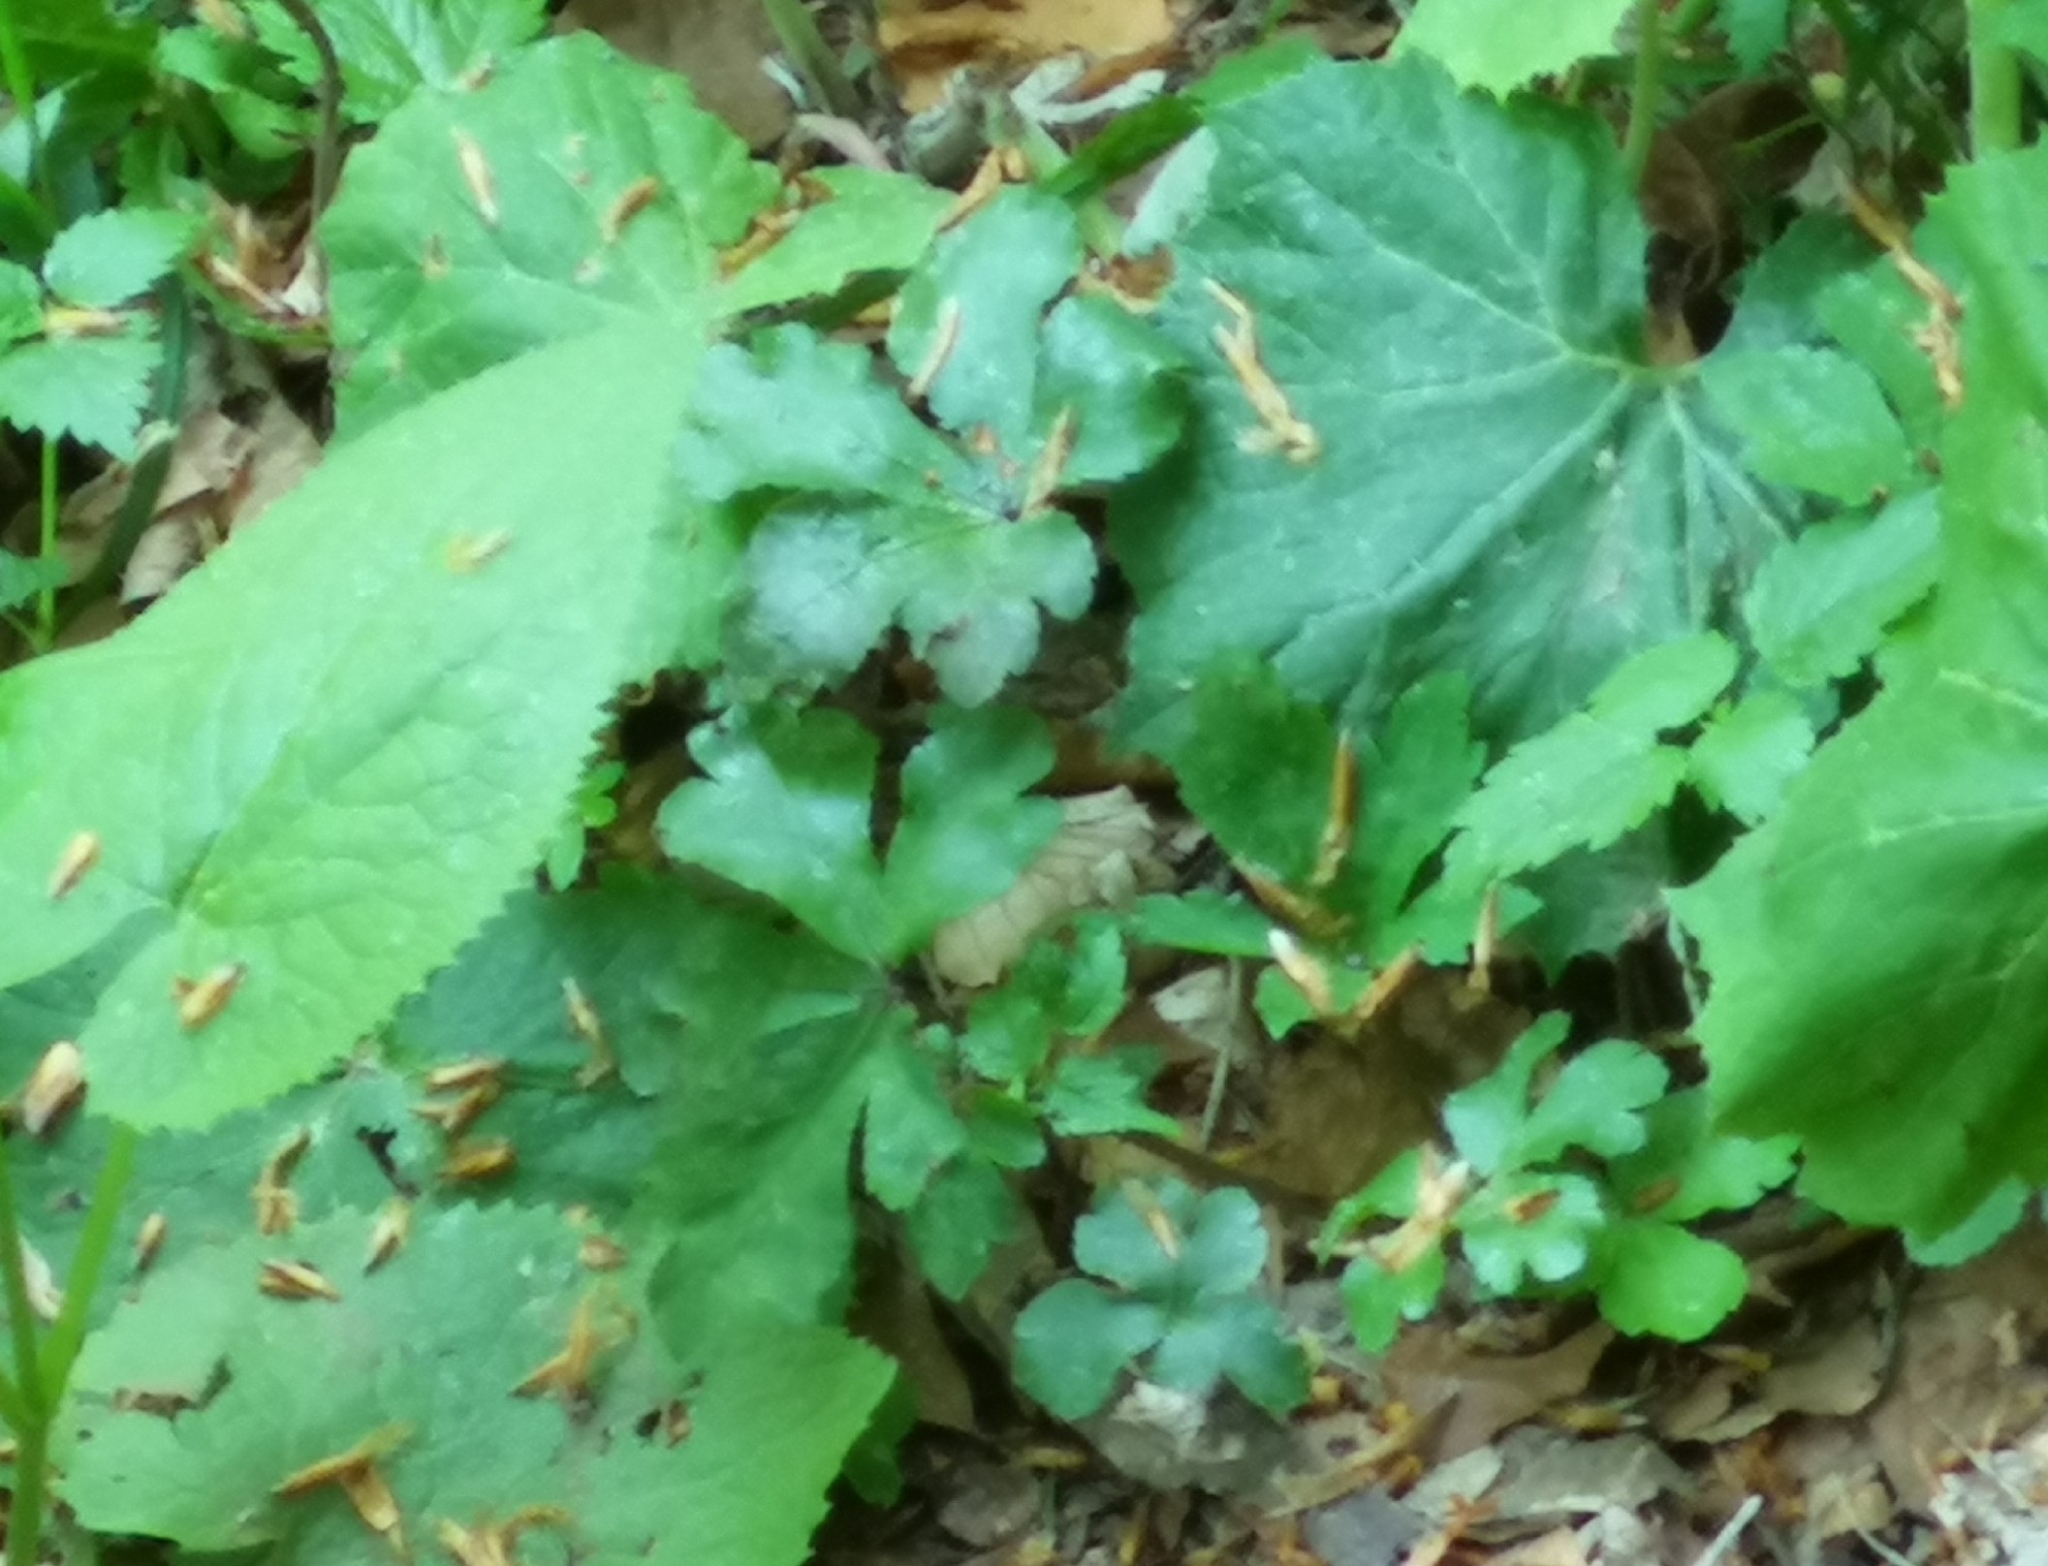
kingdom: Plantae
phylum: Tracheophyta
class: Magnoliopsida
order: Apiales
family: Apiaceae
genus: Sanicula
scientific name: Sanicula europaea
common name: Sanicle
